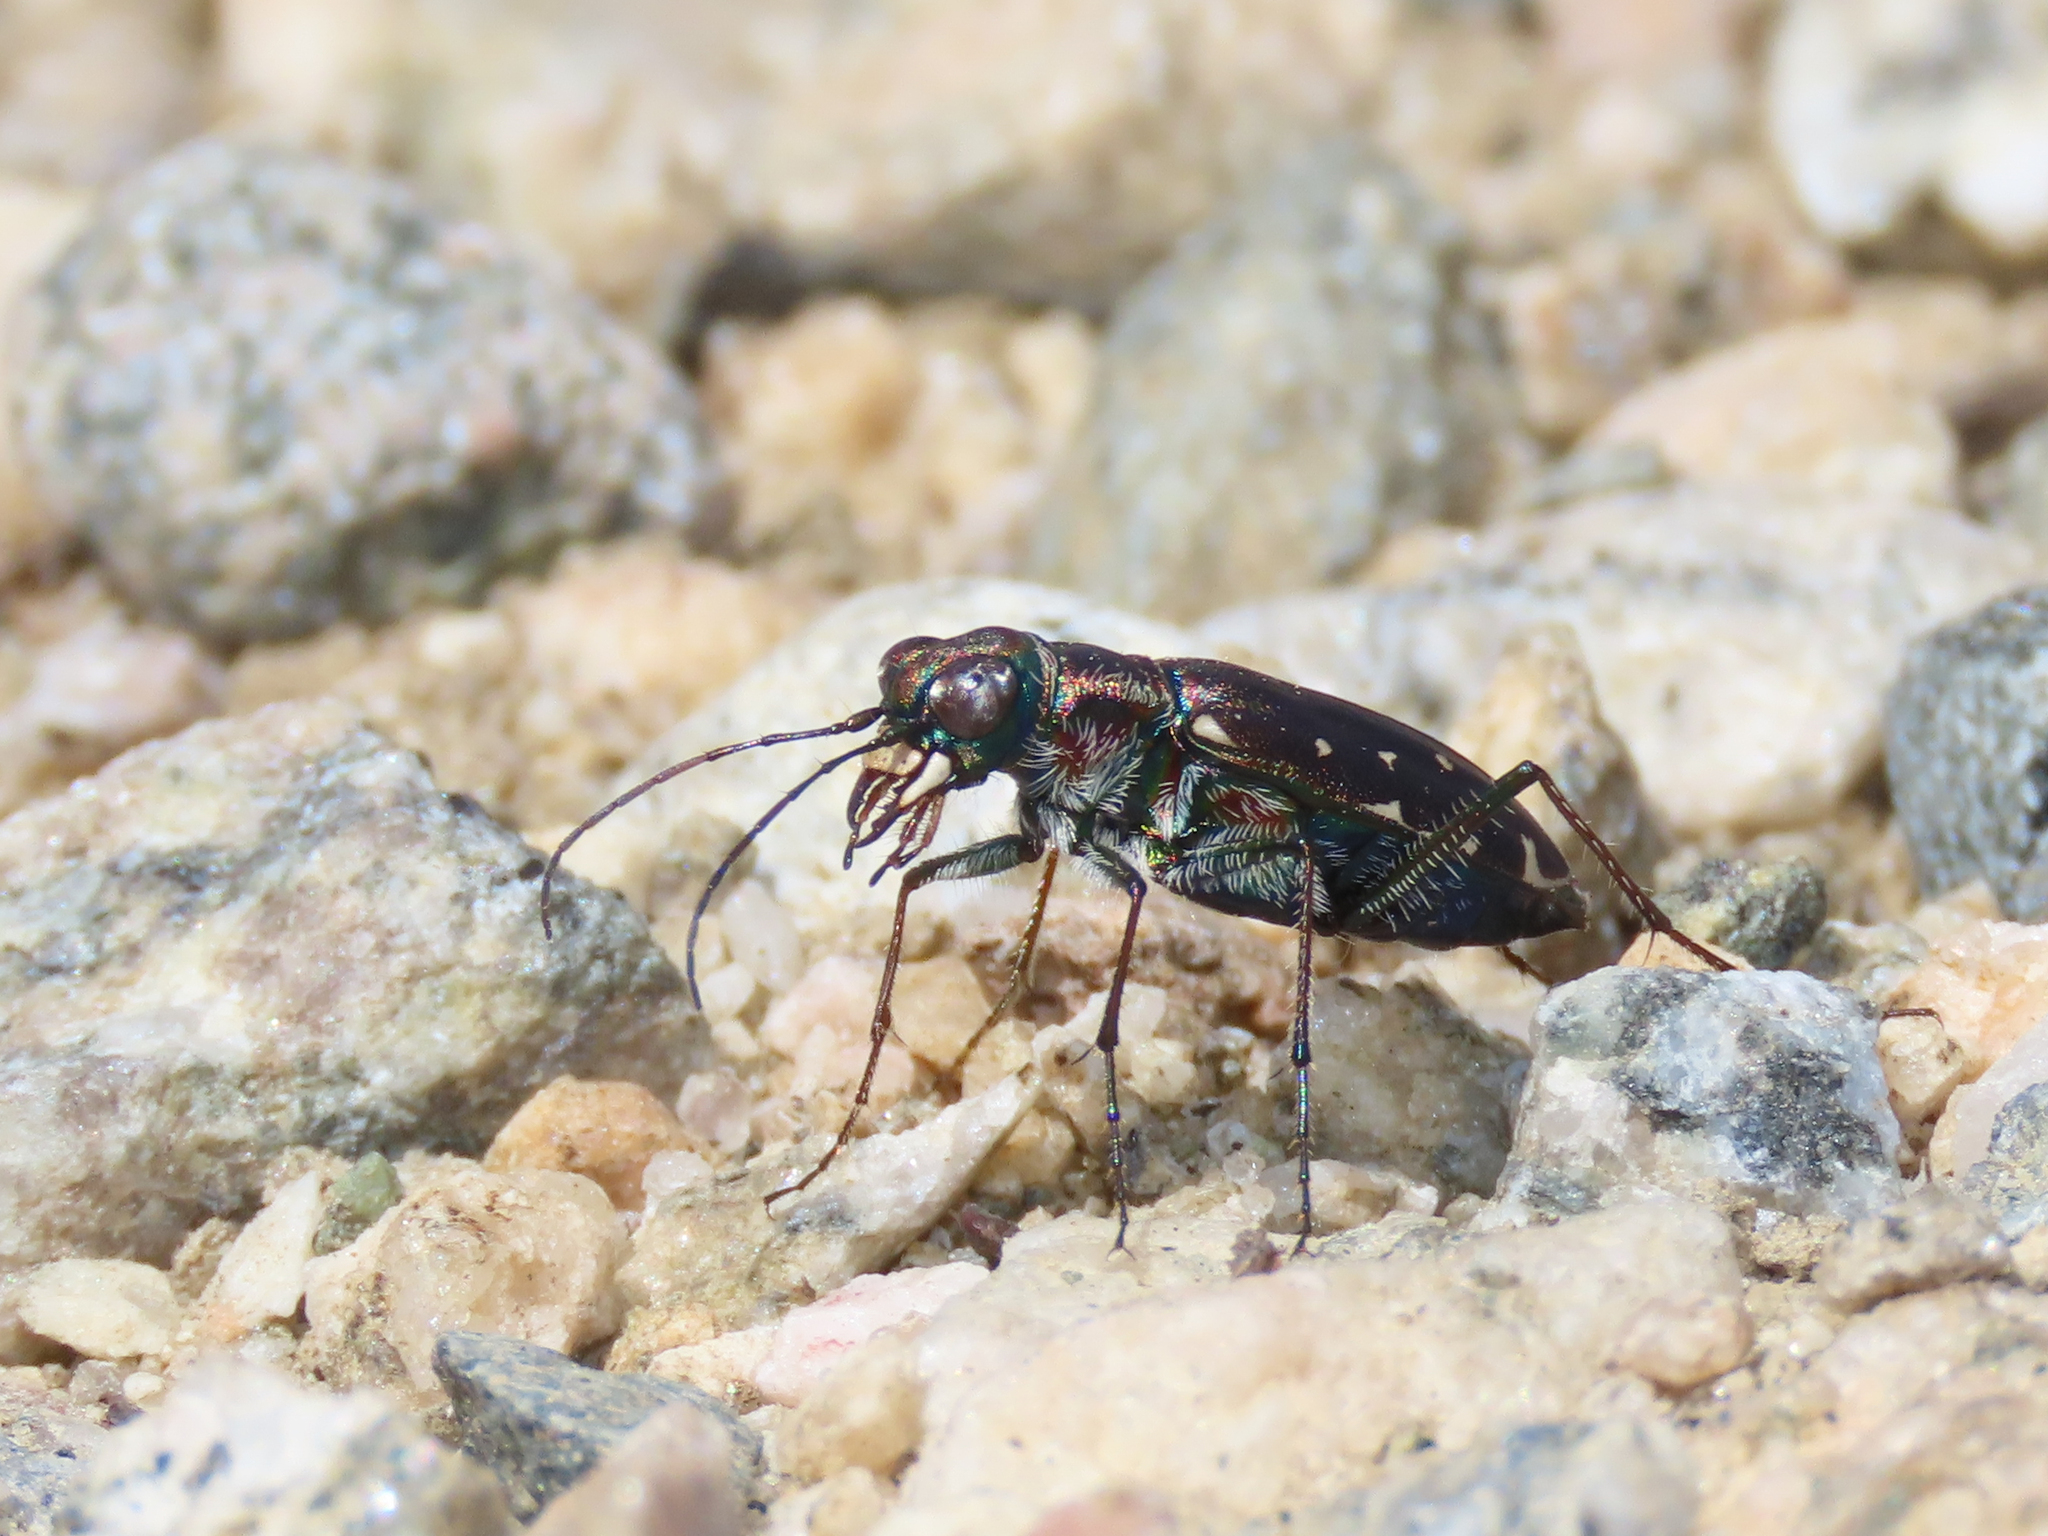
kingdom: Animalia
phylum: Arthropoda
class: Insecta
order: Coleoptera
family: Carabidae
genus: Cicindela
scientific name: Cicindela punctulata
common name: Punctured tiger beetle
